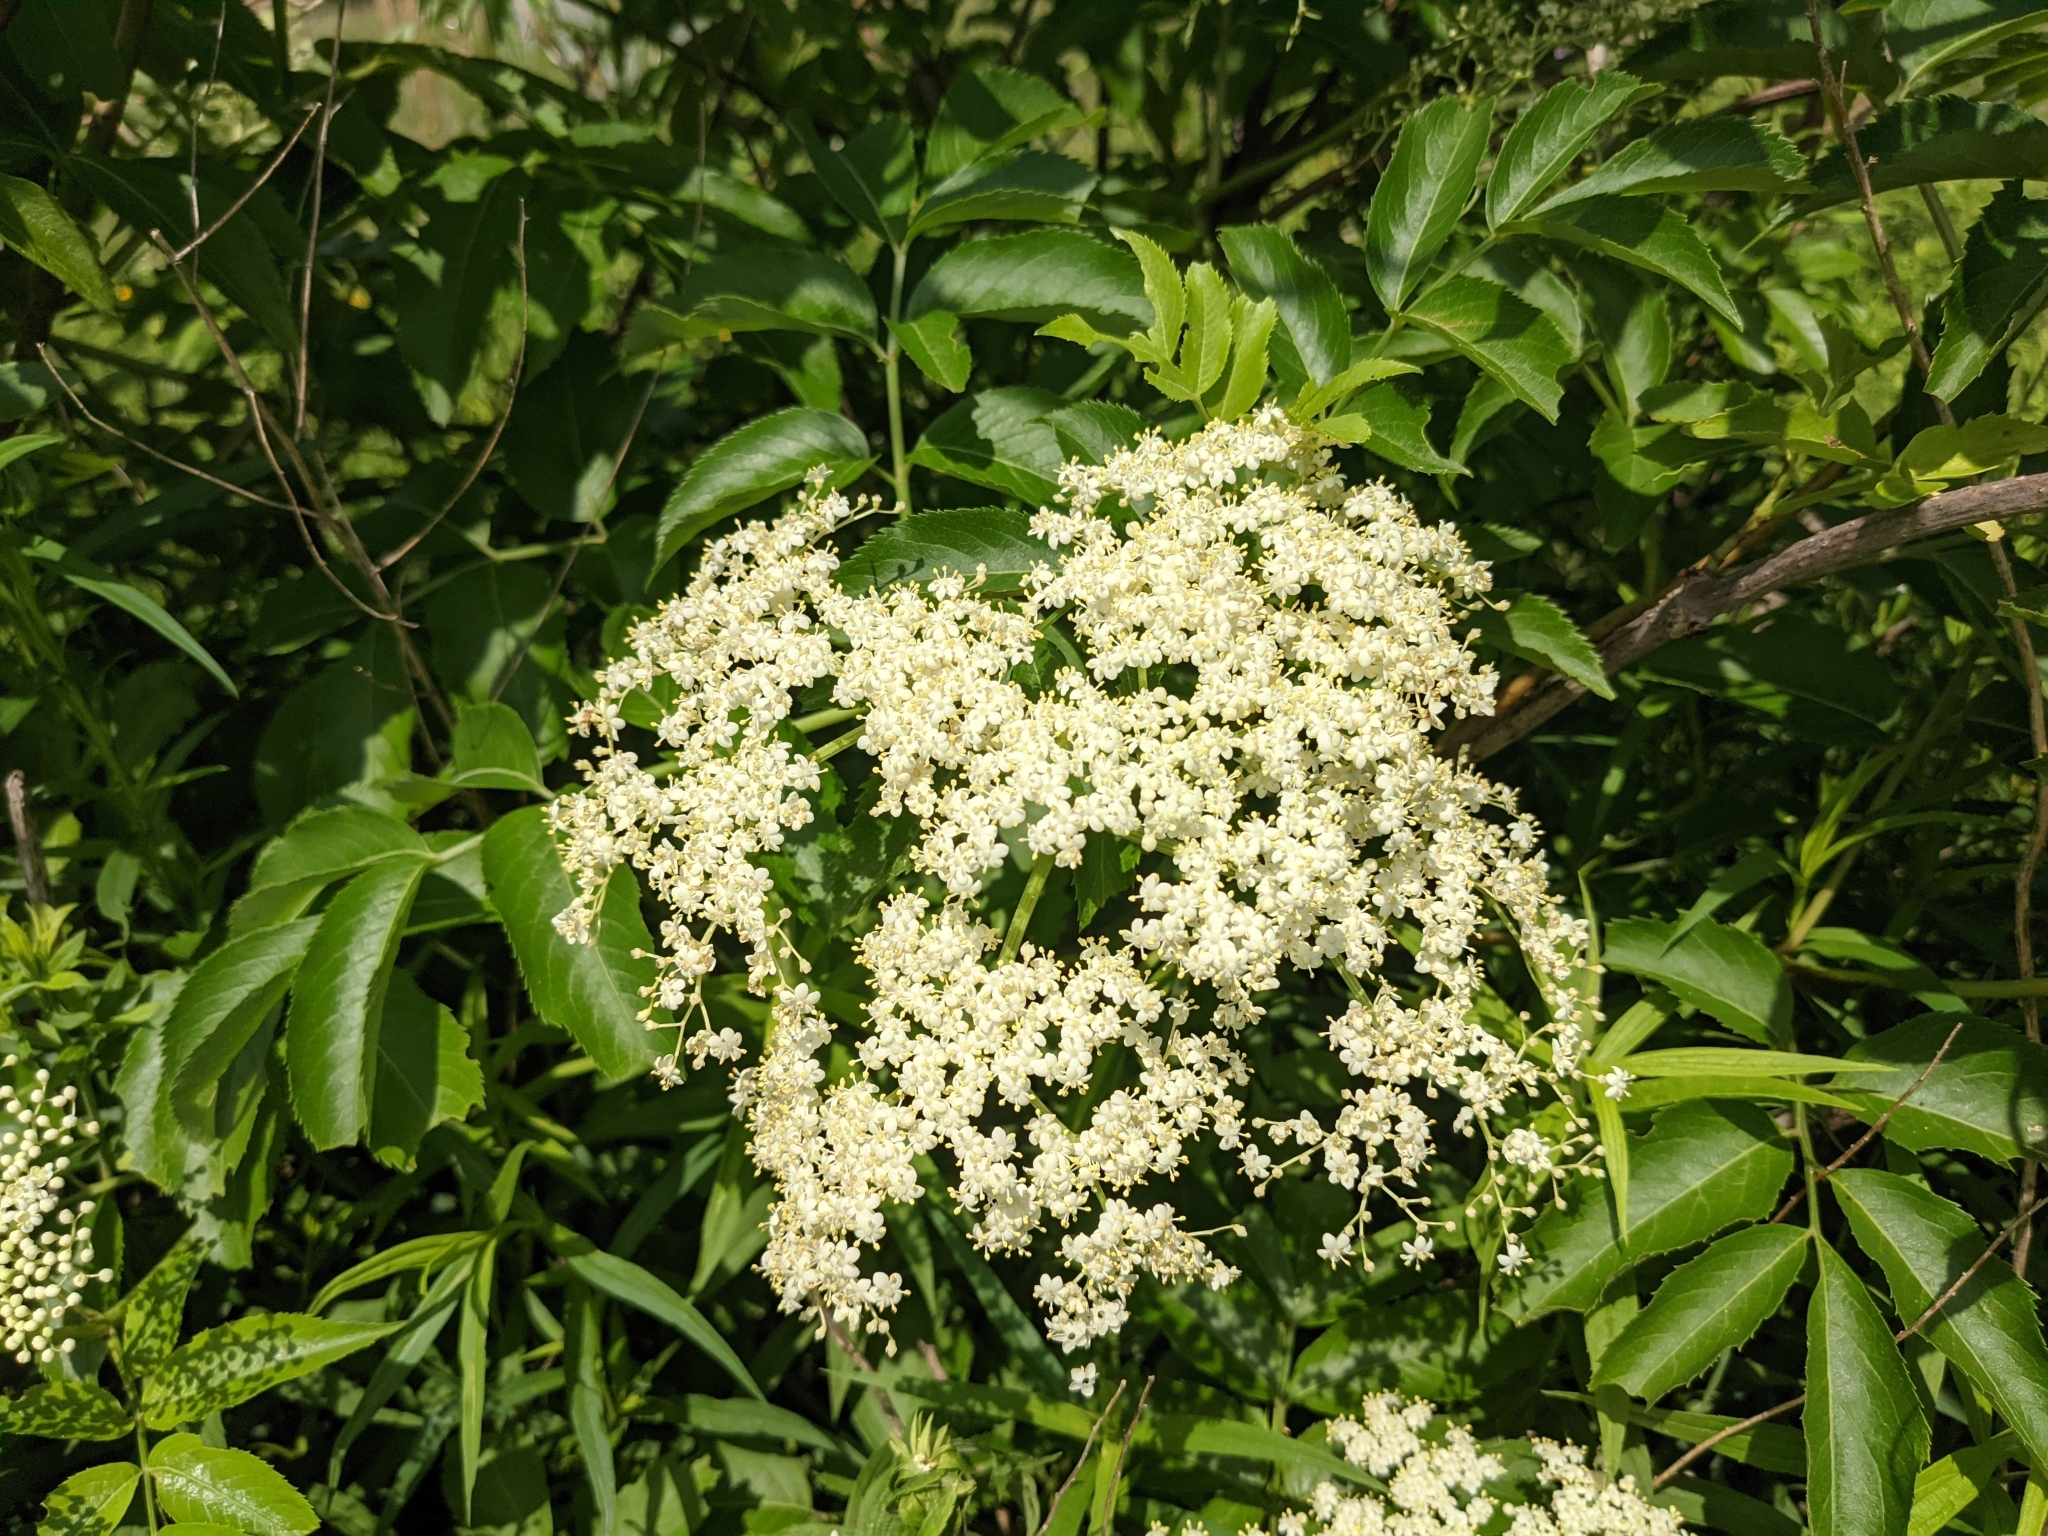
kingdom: Plantae
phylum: Tracheophyta
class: Magnoliopsida
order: Dipsacales
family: Viburnaceae
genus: Sambucus
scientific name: Sambucus canadensis
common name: American elder
